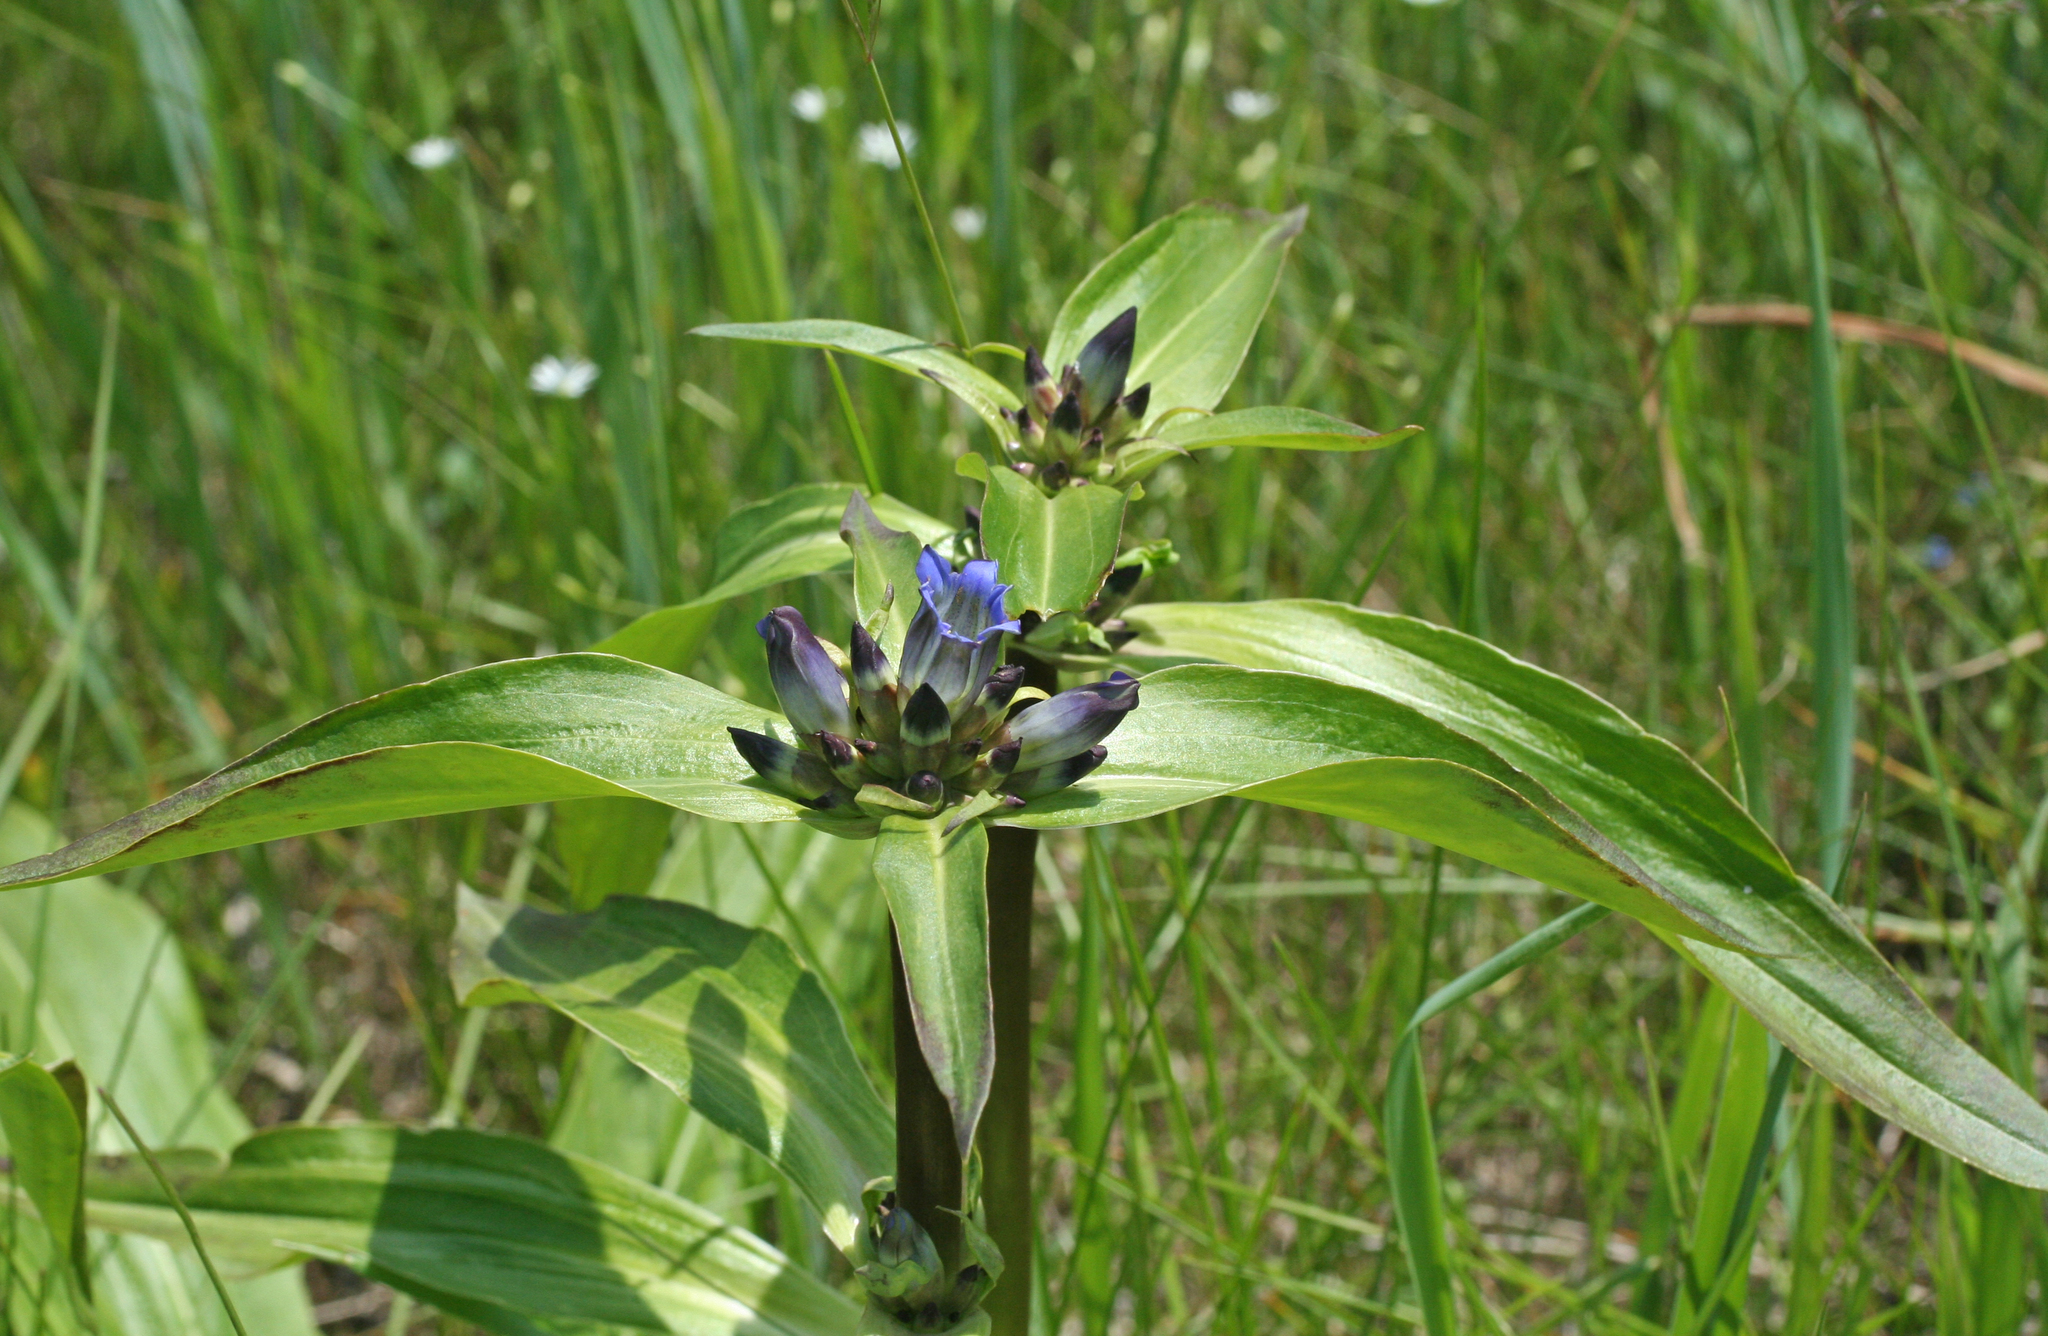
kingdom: Plantae
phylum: Tracheophyta
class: Magnoliopsida
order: Gentianales
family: Gentianaceae
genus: Gentiana
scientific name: Gentiana macrophylla
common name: Large-leaf gentian
